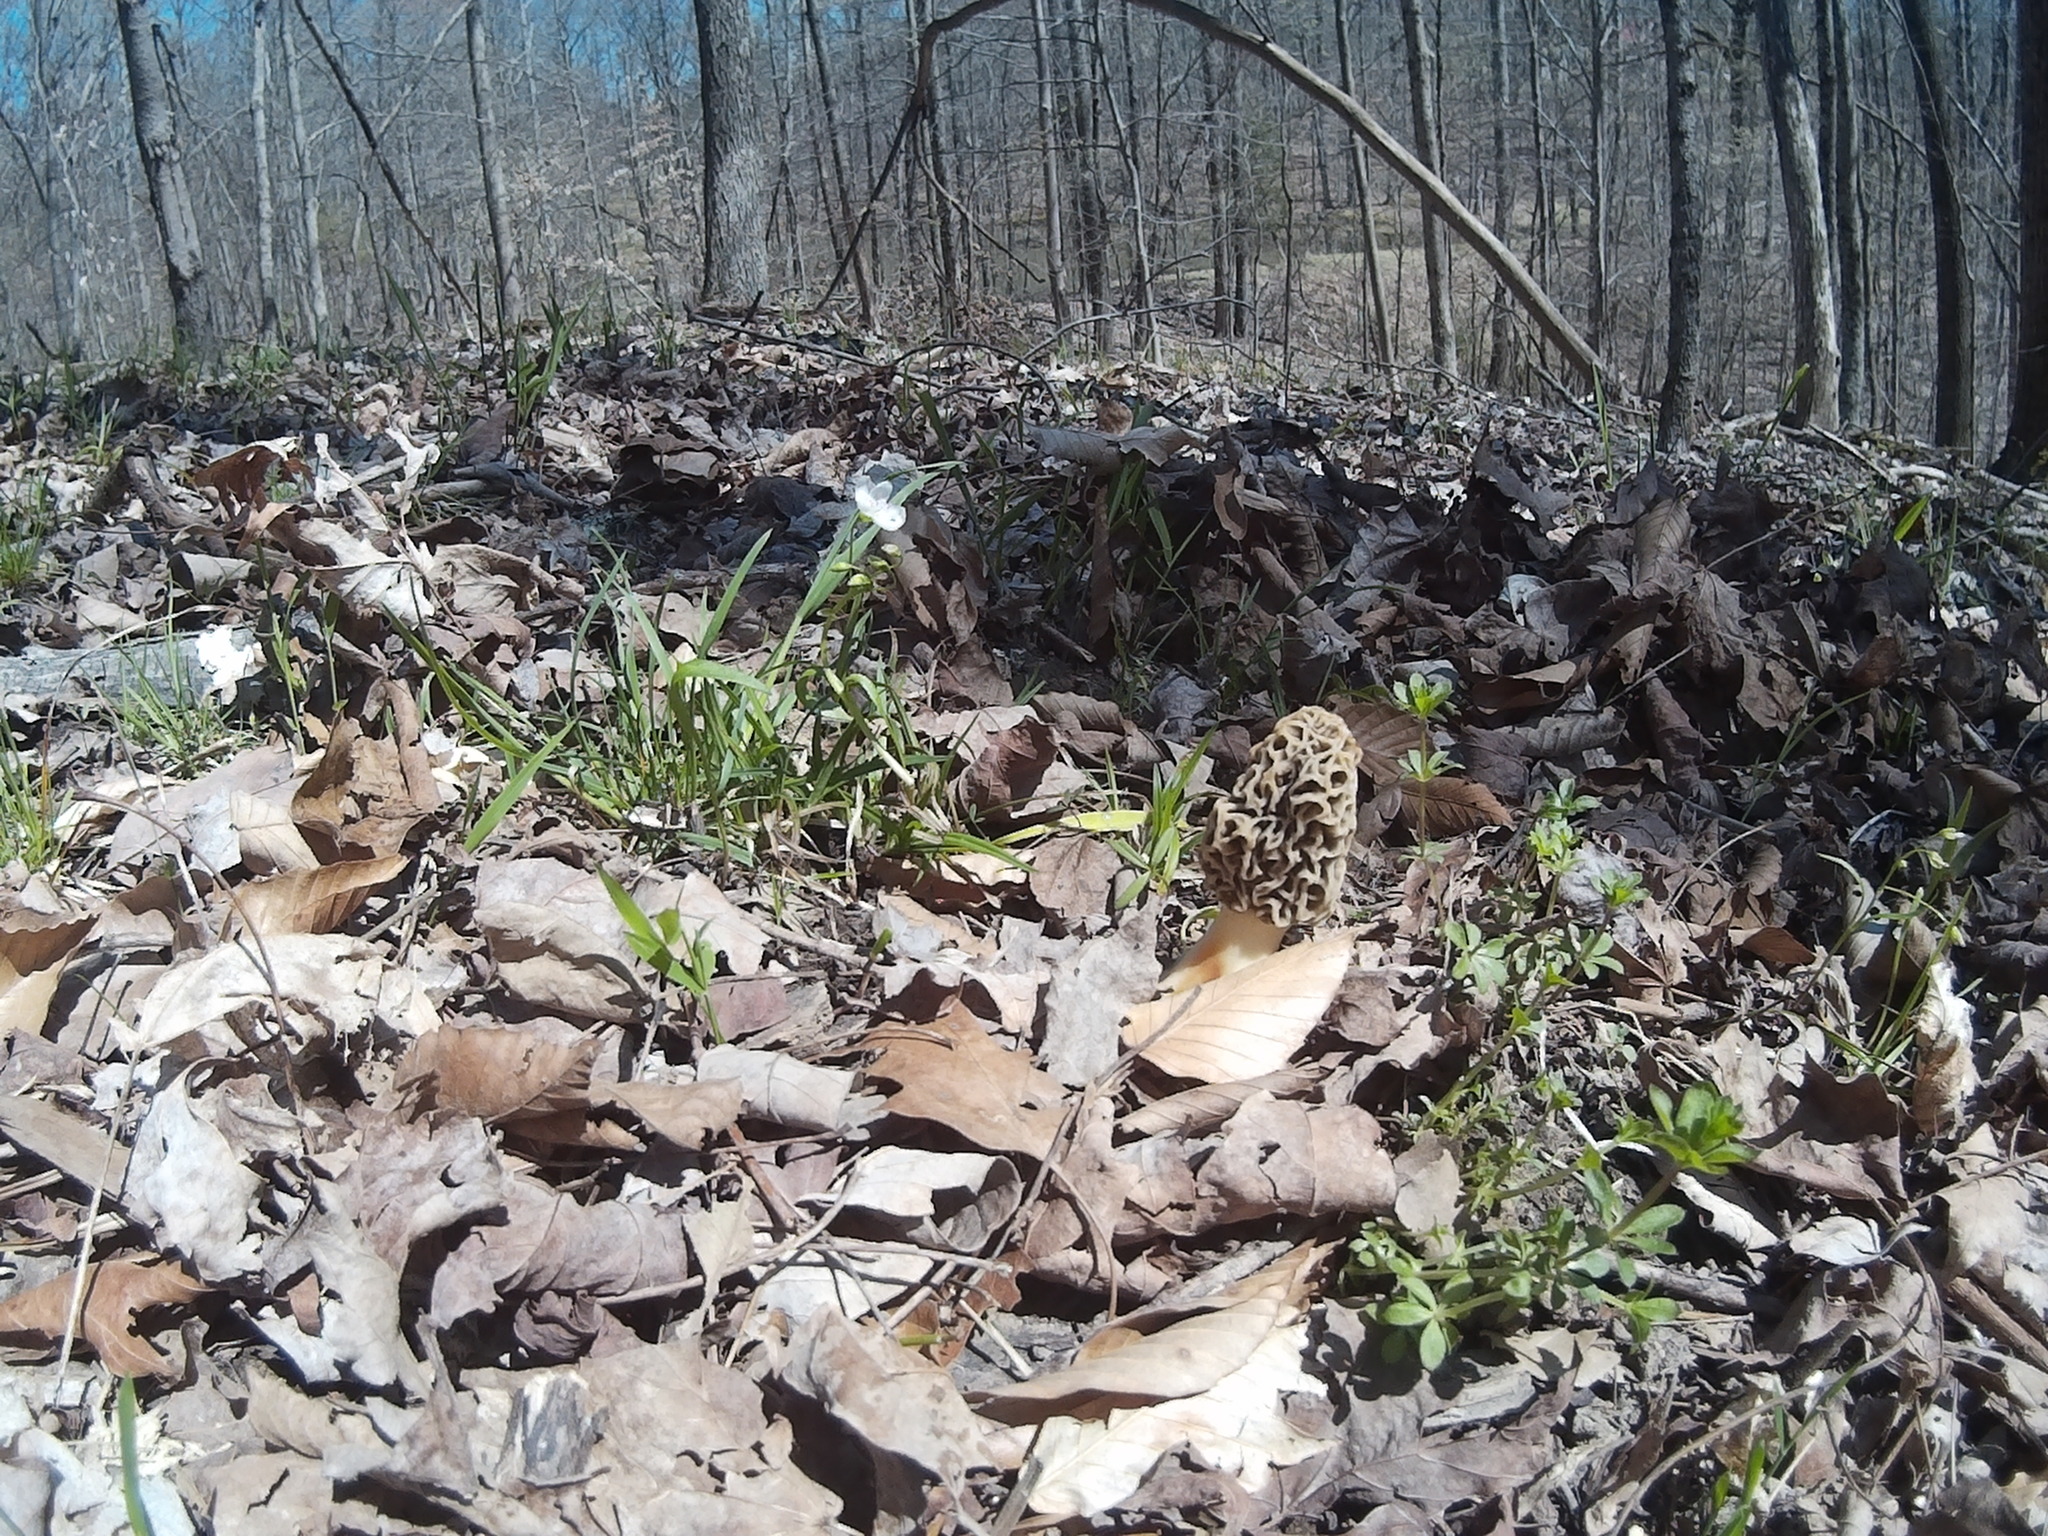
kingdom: Fungi
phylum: Ascomycota
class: Pezizomycetes
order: Pezizales
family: Morchellaceae
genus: Morchella
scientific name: Morchella americana
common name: White morel
